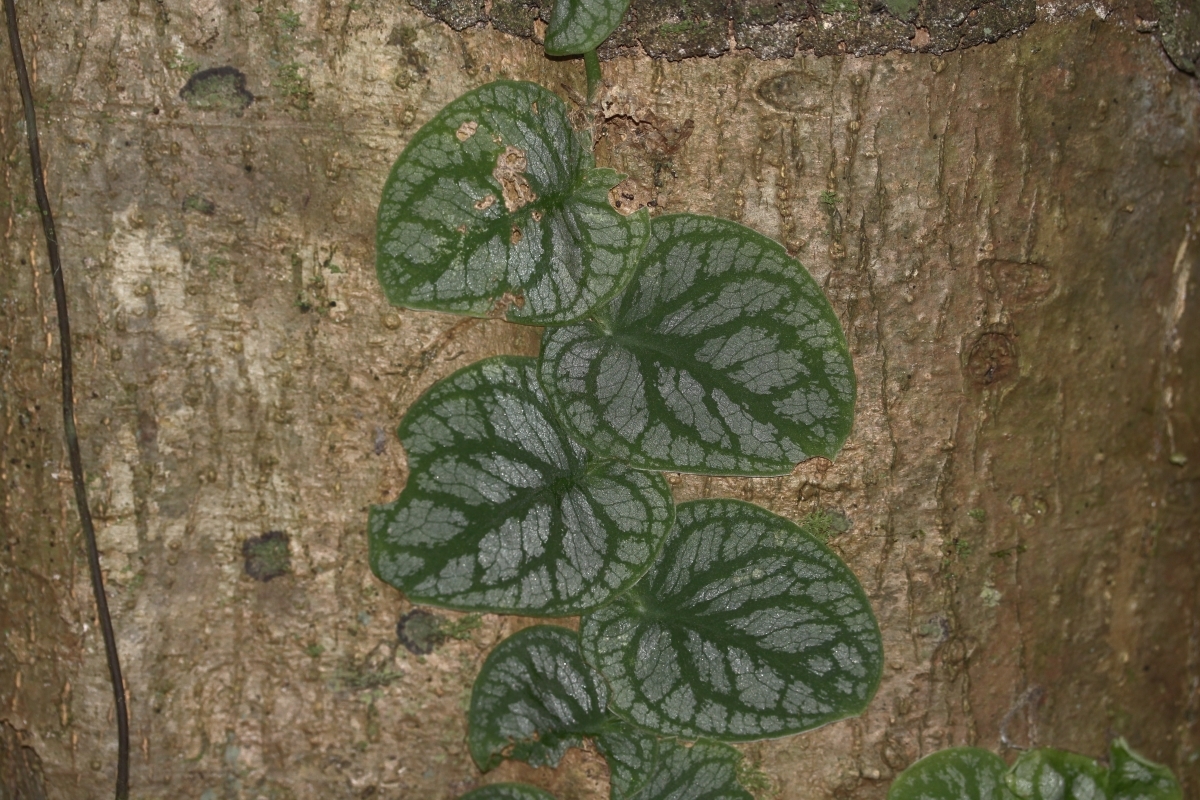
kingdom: Plantae
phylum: Tracheophyta
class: Liliopsida
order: Alismatales
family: Araceae
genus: Monstera
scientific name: Monstera dubia
